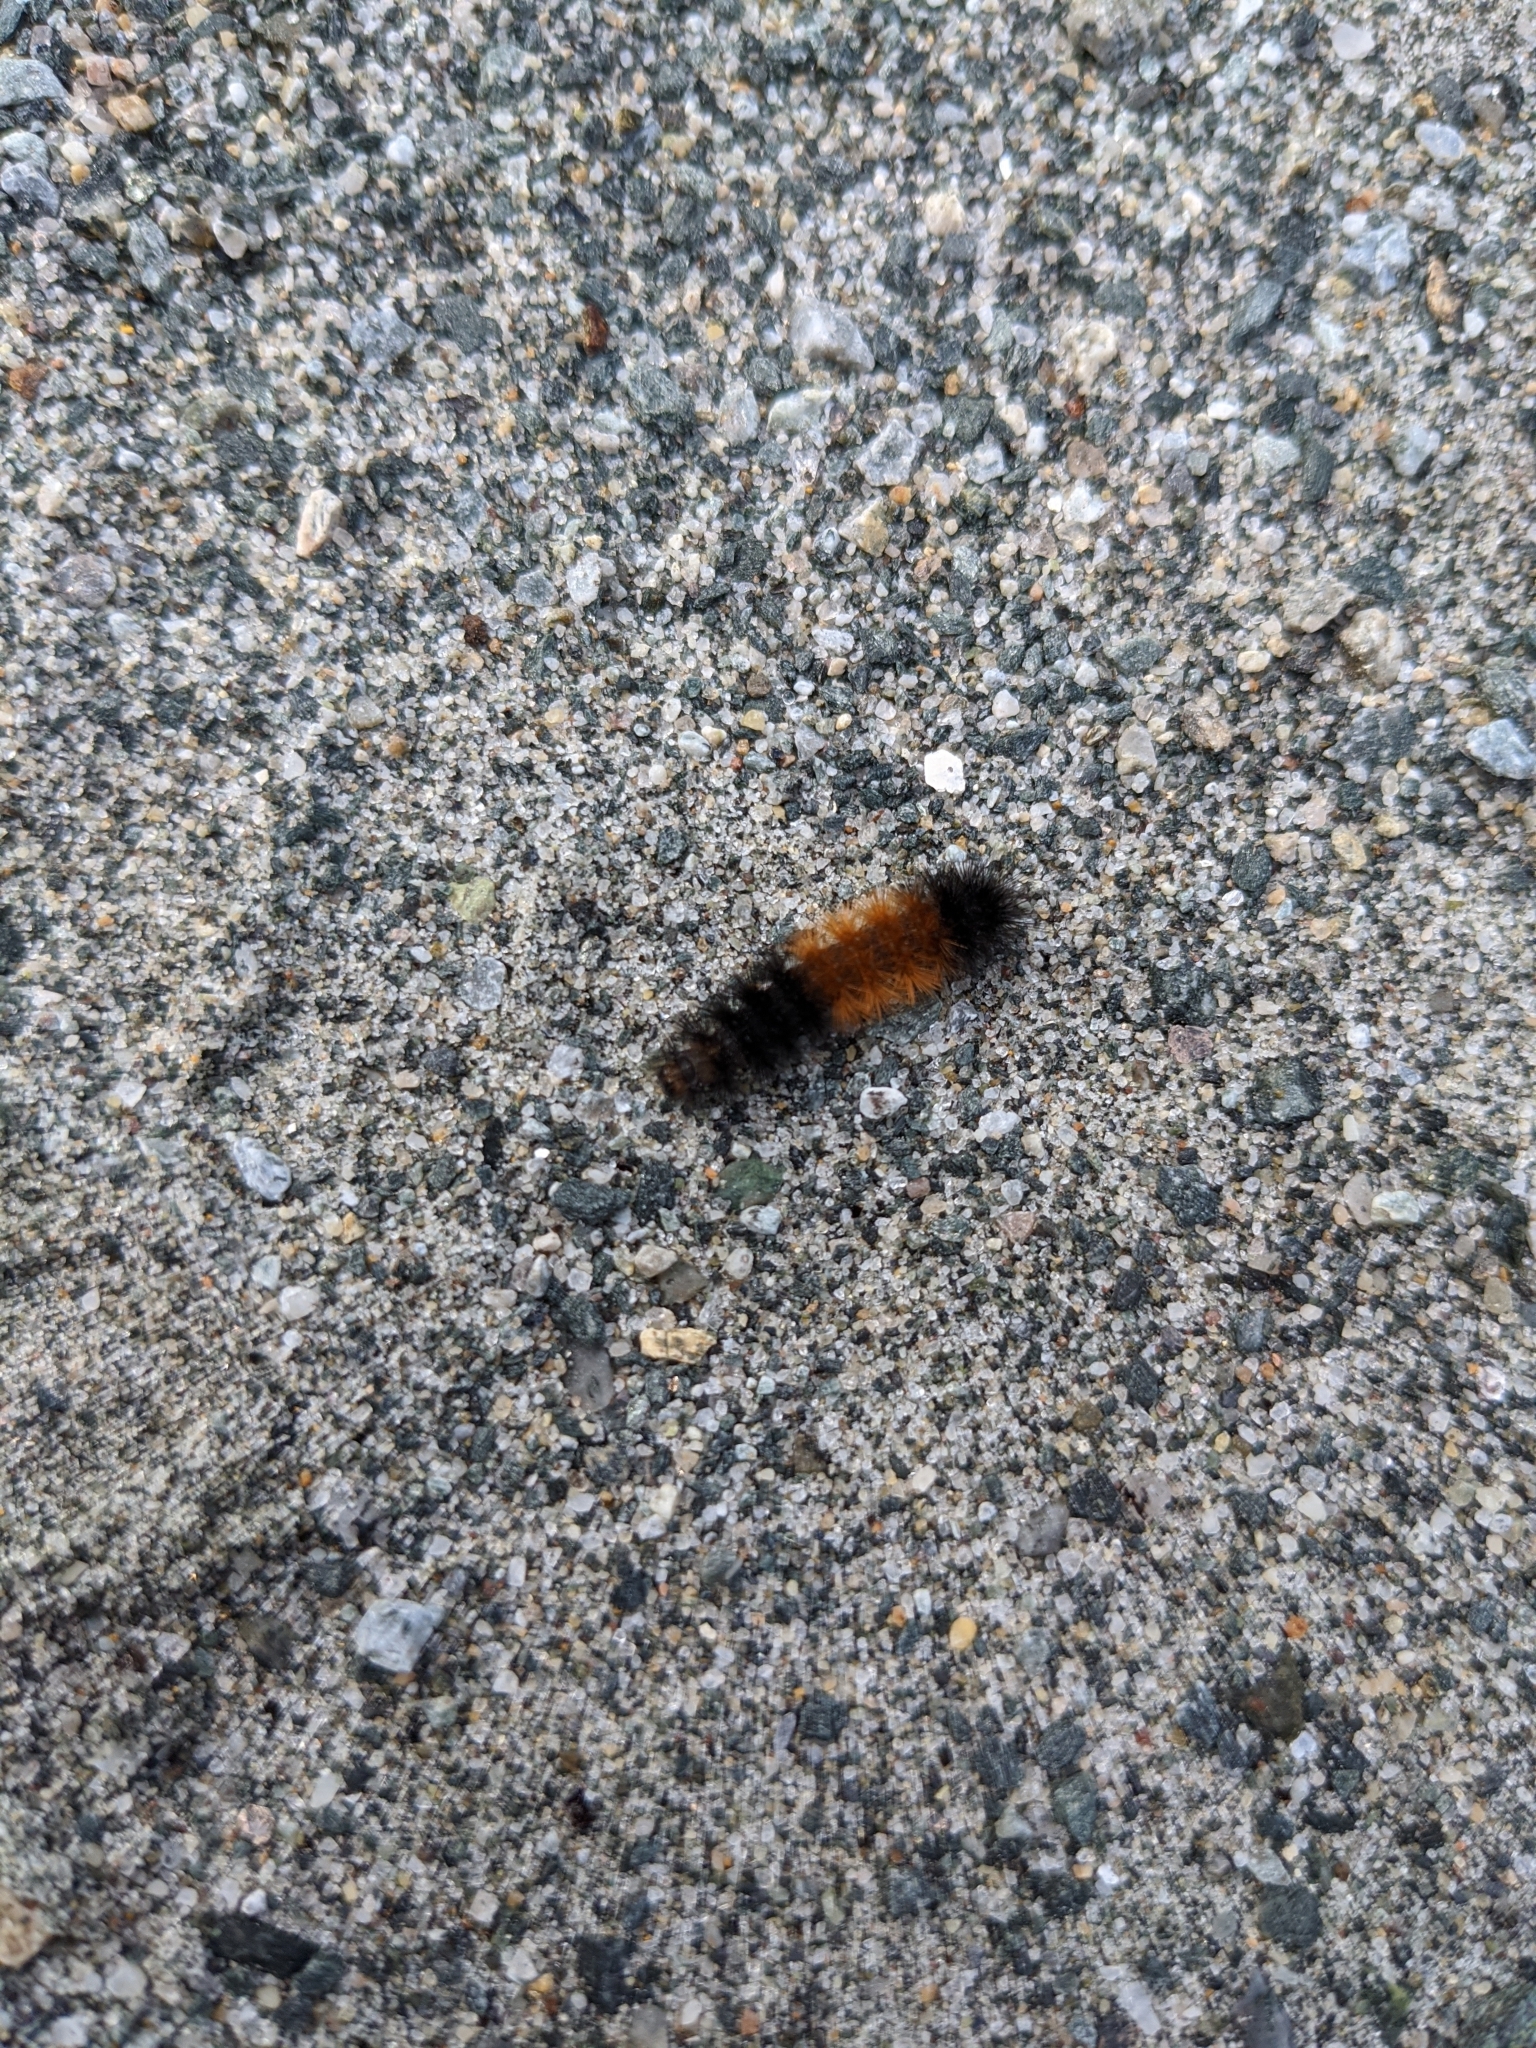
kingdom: Animalia
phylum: Arthropoda
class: Insecta
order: Lepidoptera
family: Erebidae
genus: Pyrrharctia
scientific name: Pyrrharctia isabella
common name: Isabella tiger moth
